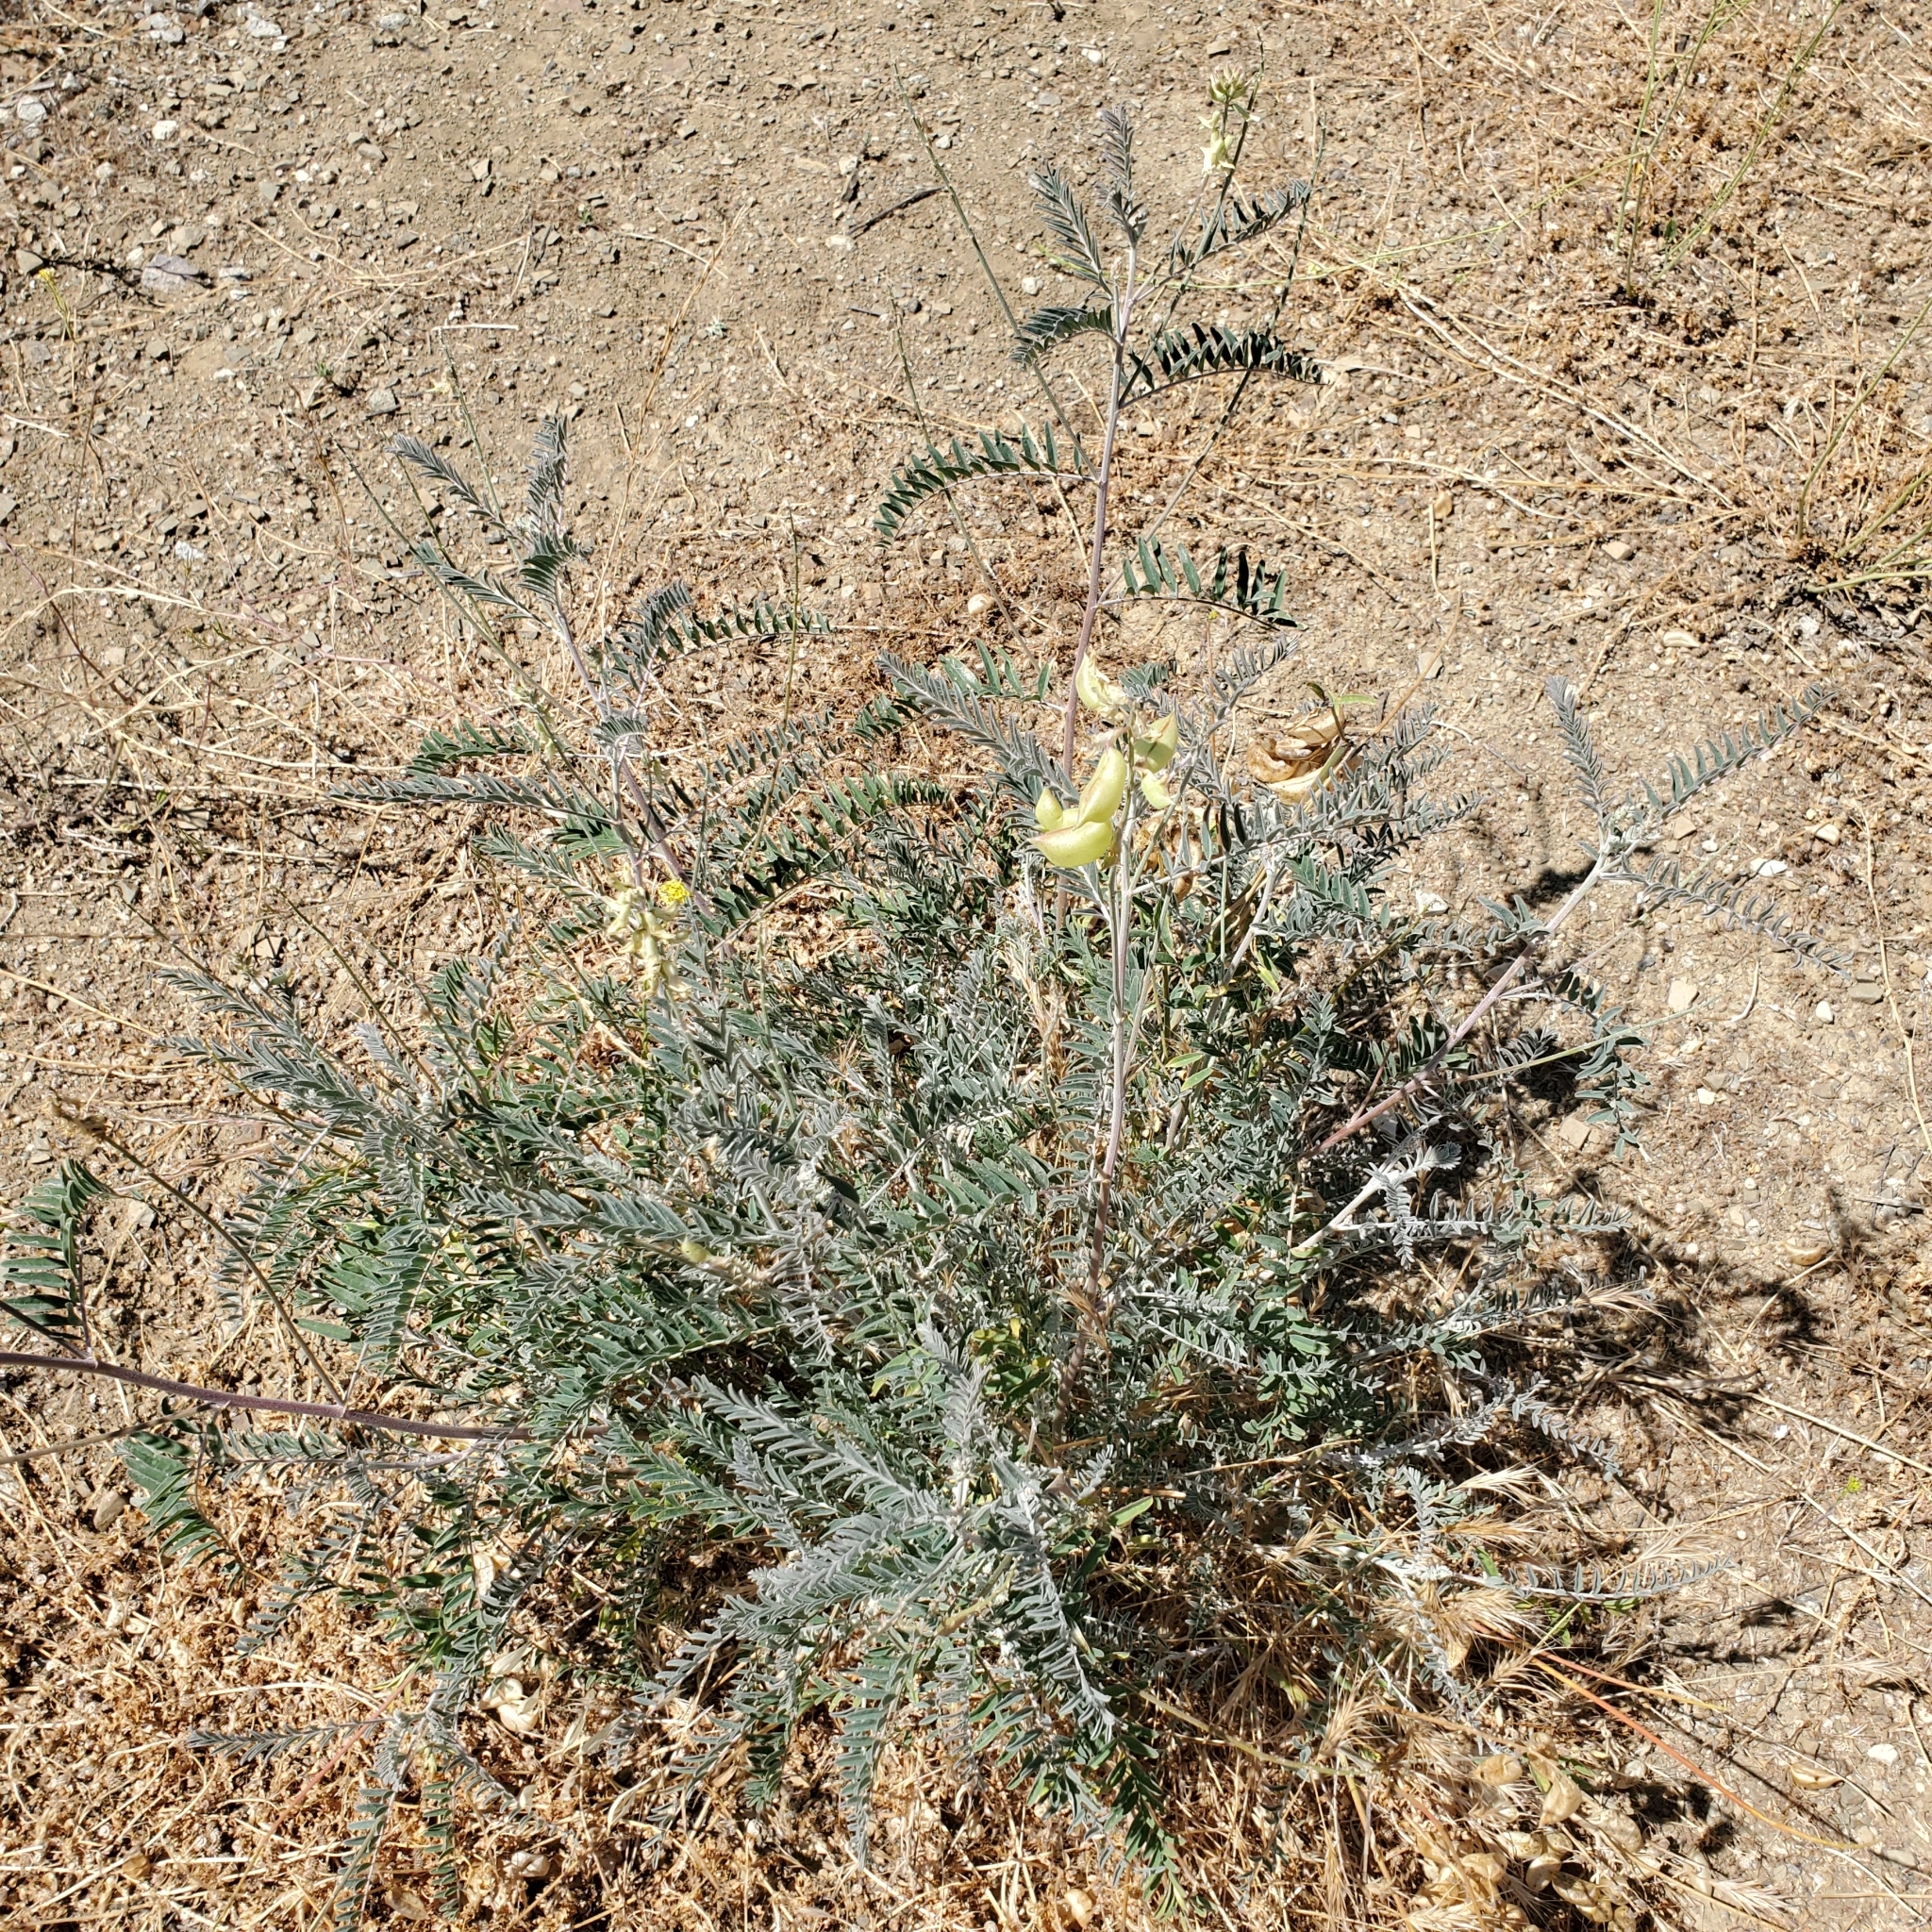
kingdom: Plantae
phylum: Tracheophyta
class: Magnoliopsida
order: Fabales
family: Fabaceae
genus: Astragalus
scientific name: Astragalus trichopodus
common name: Santa barbara milk-vetch
